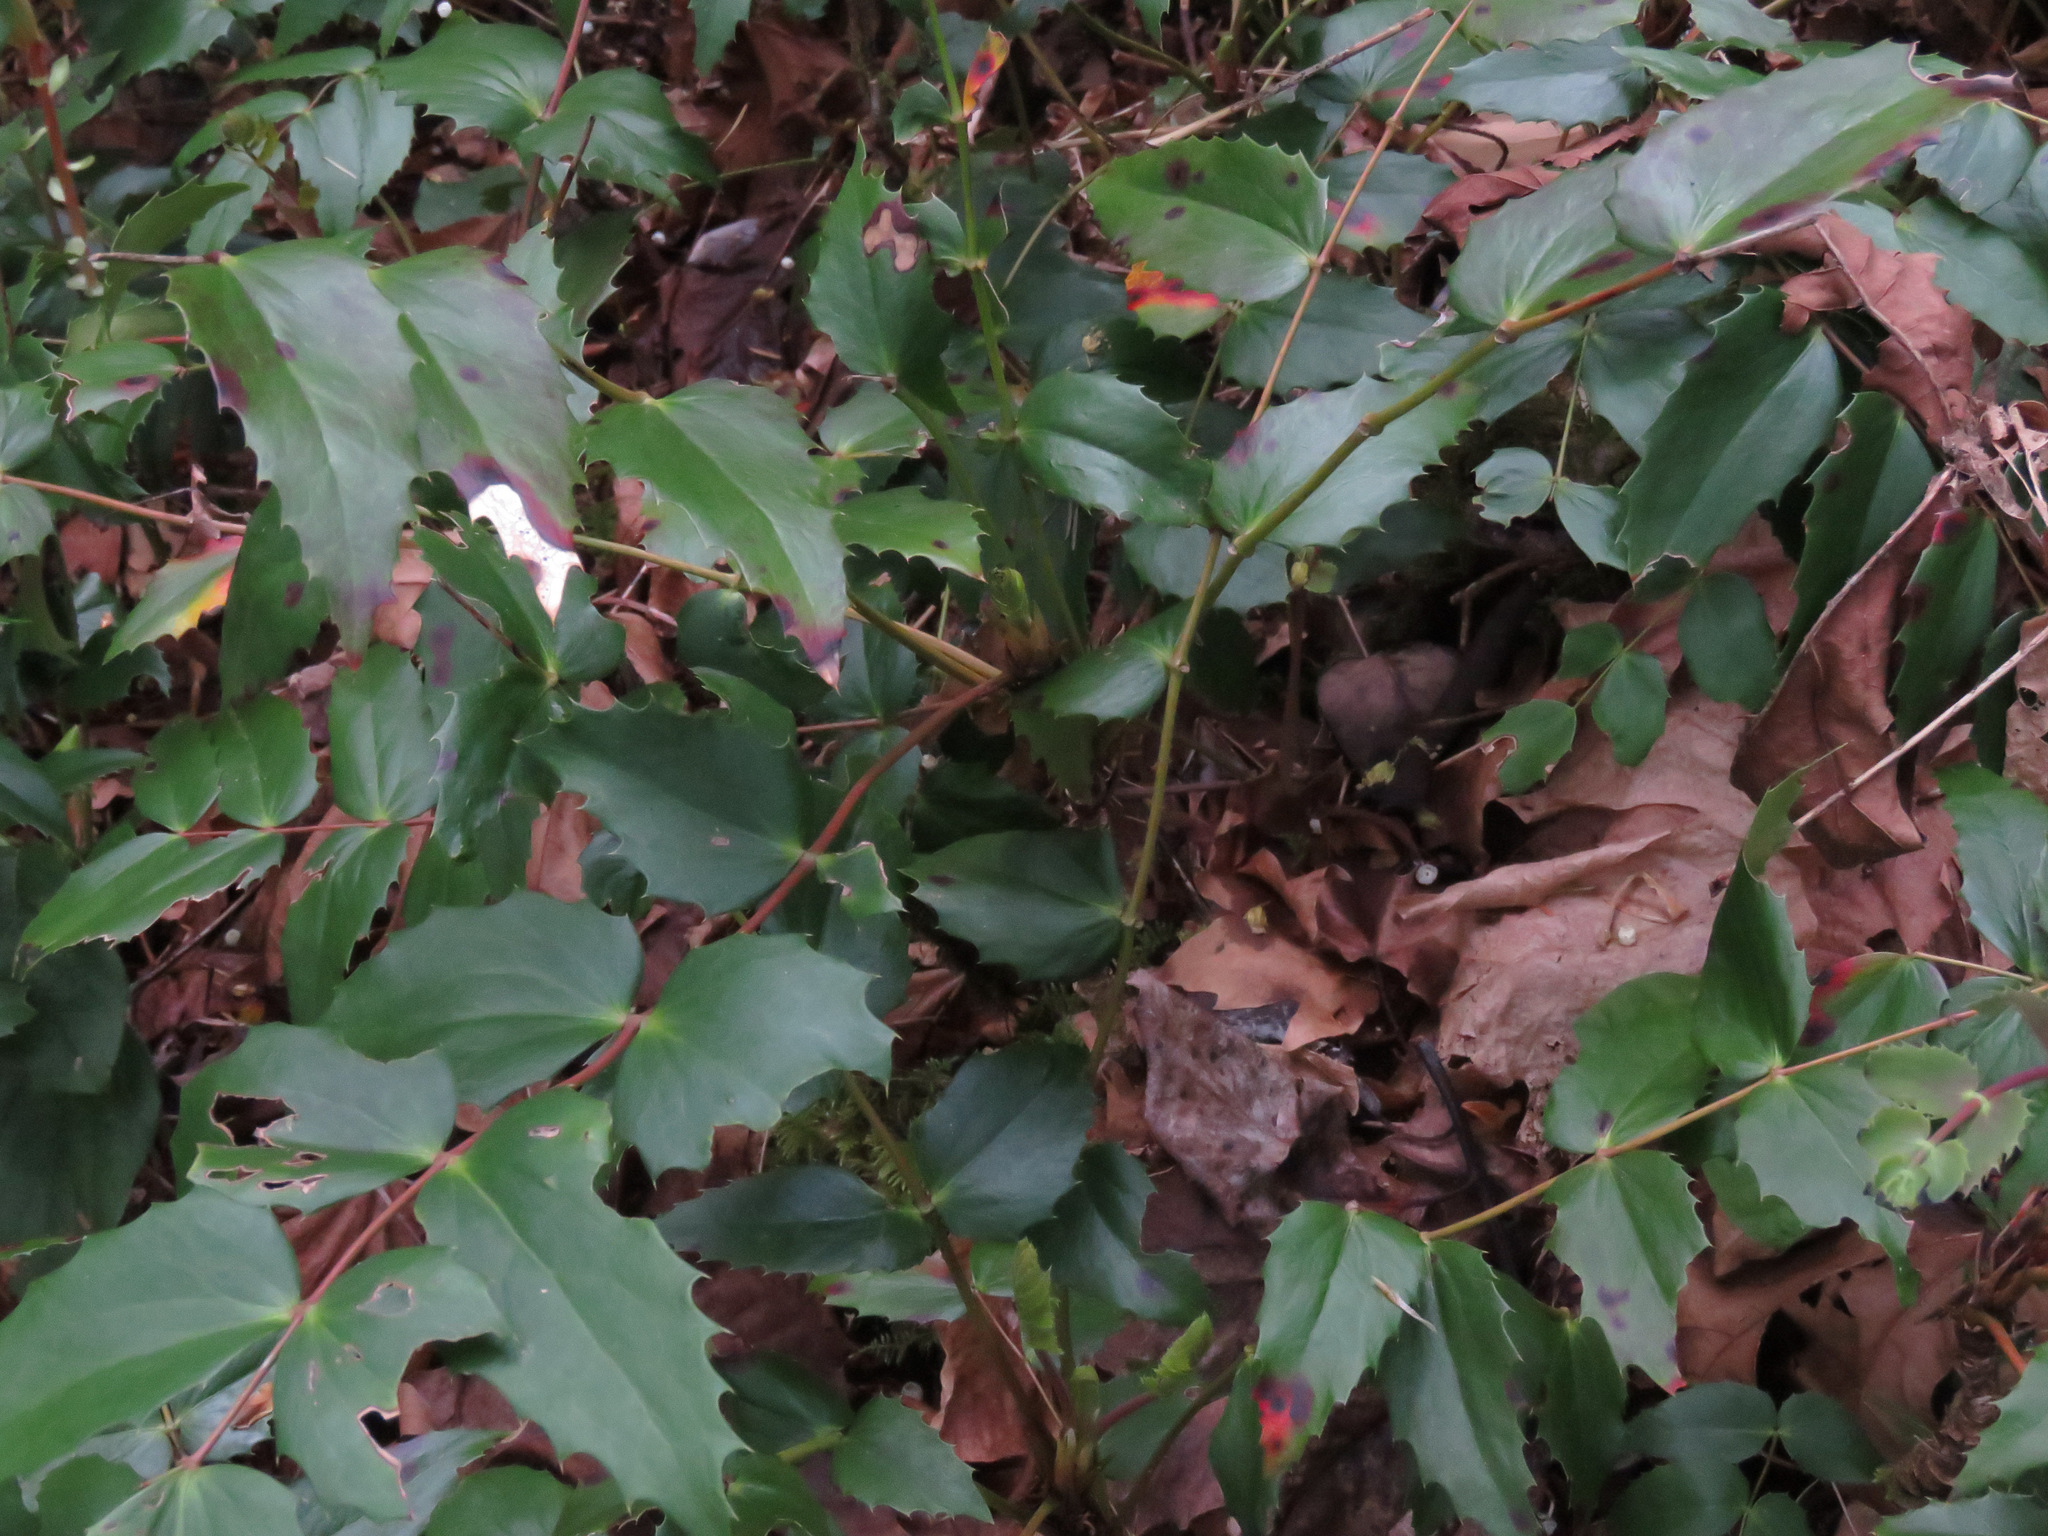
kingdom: Plantae
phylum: Tracheophyta
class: Magnoliopsida
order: Ranunculales
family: Berberidaceae
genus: Mahonia
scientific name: Mahonia nervosa
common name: Cascade oregon-grape
